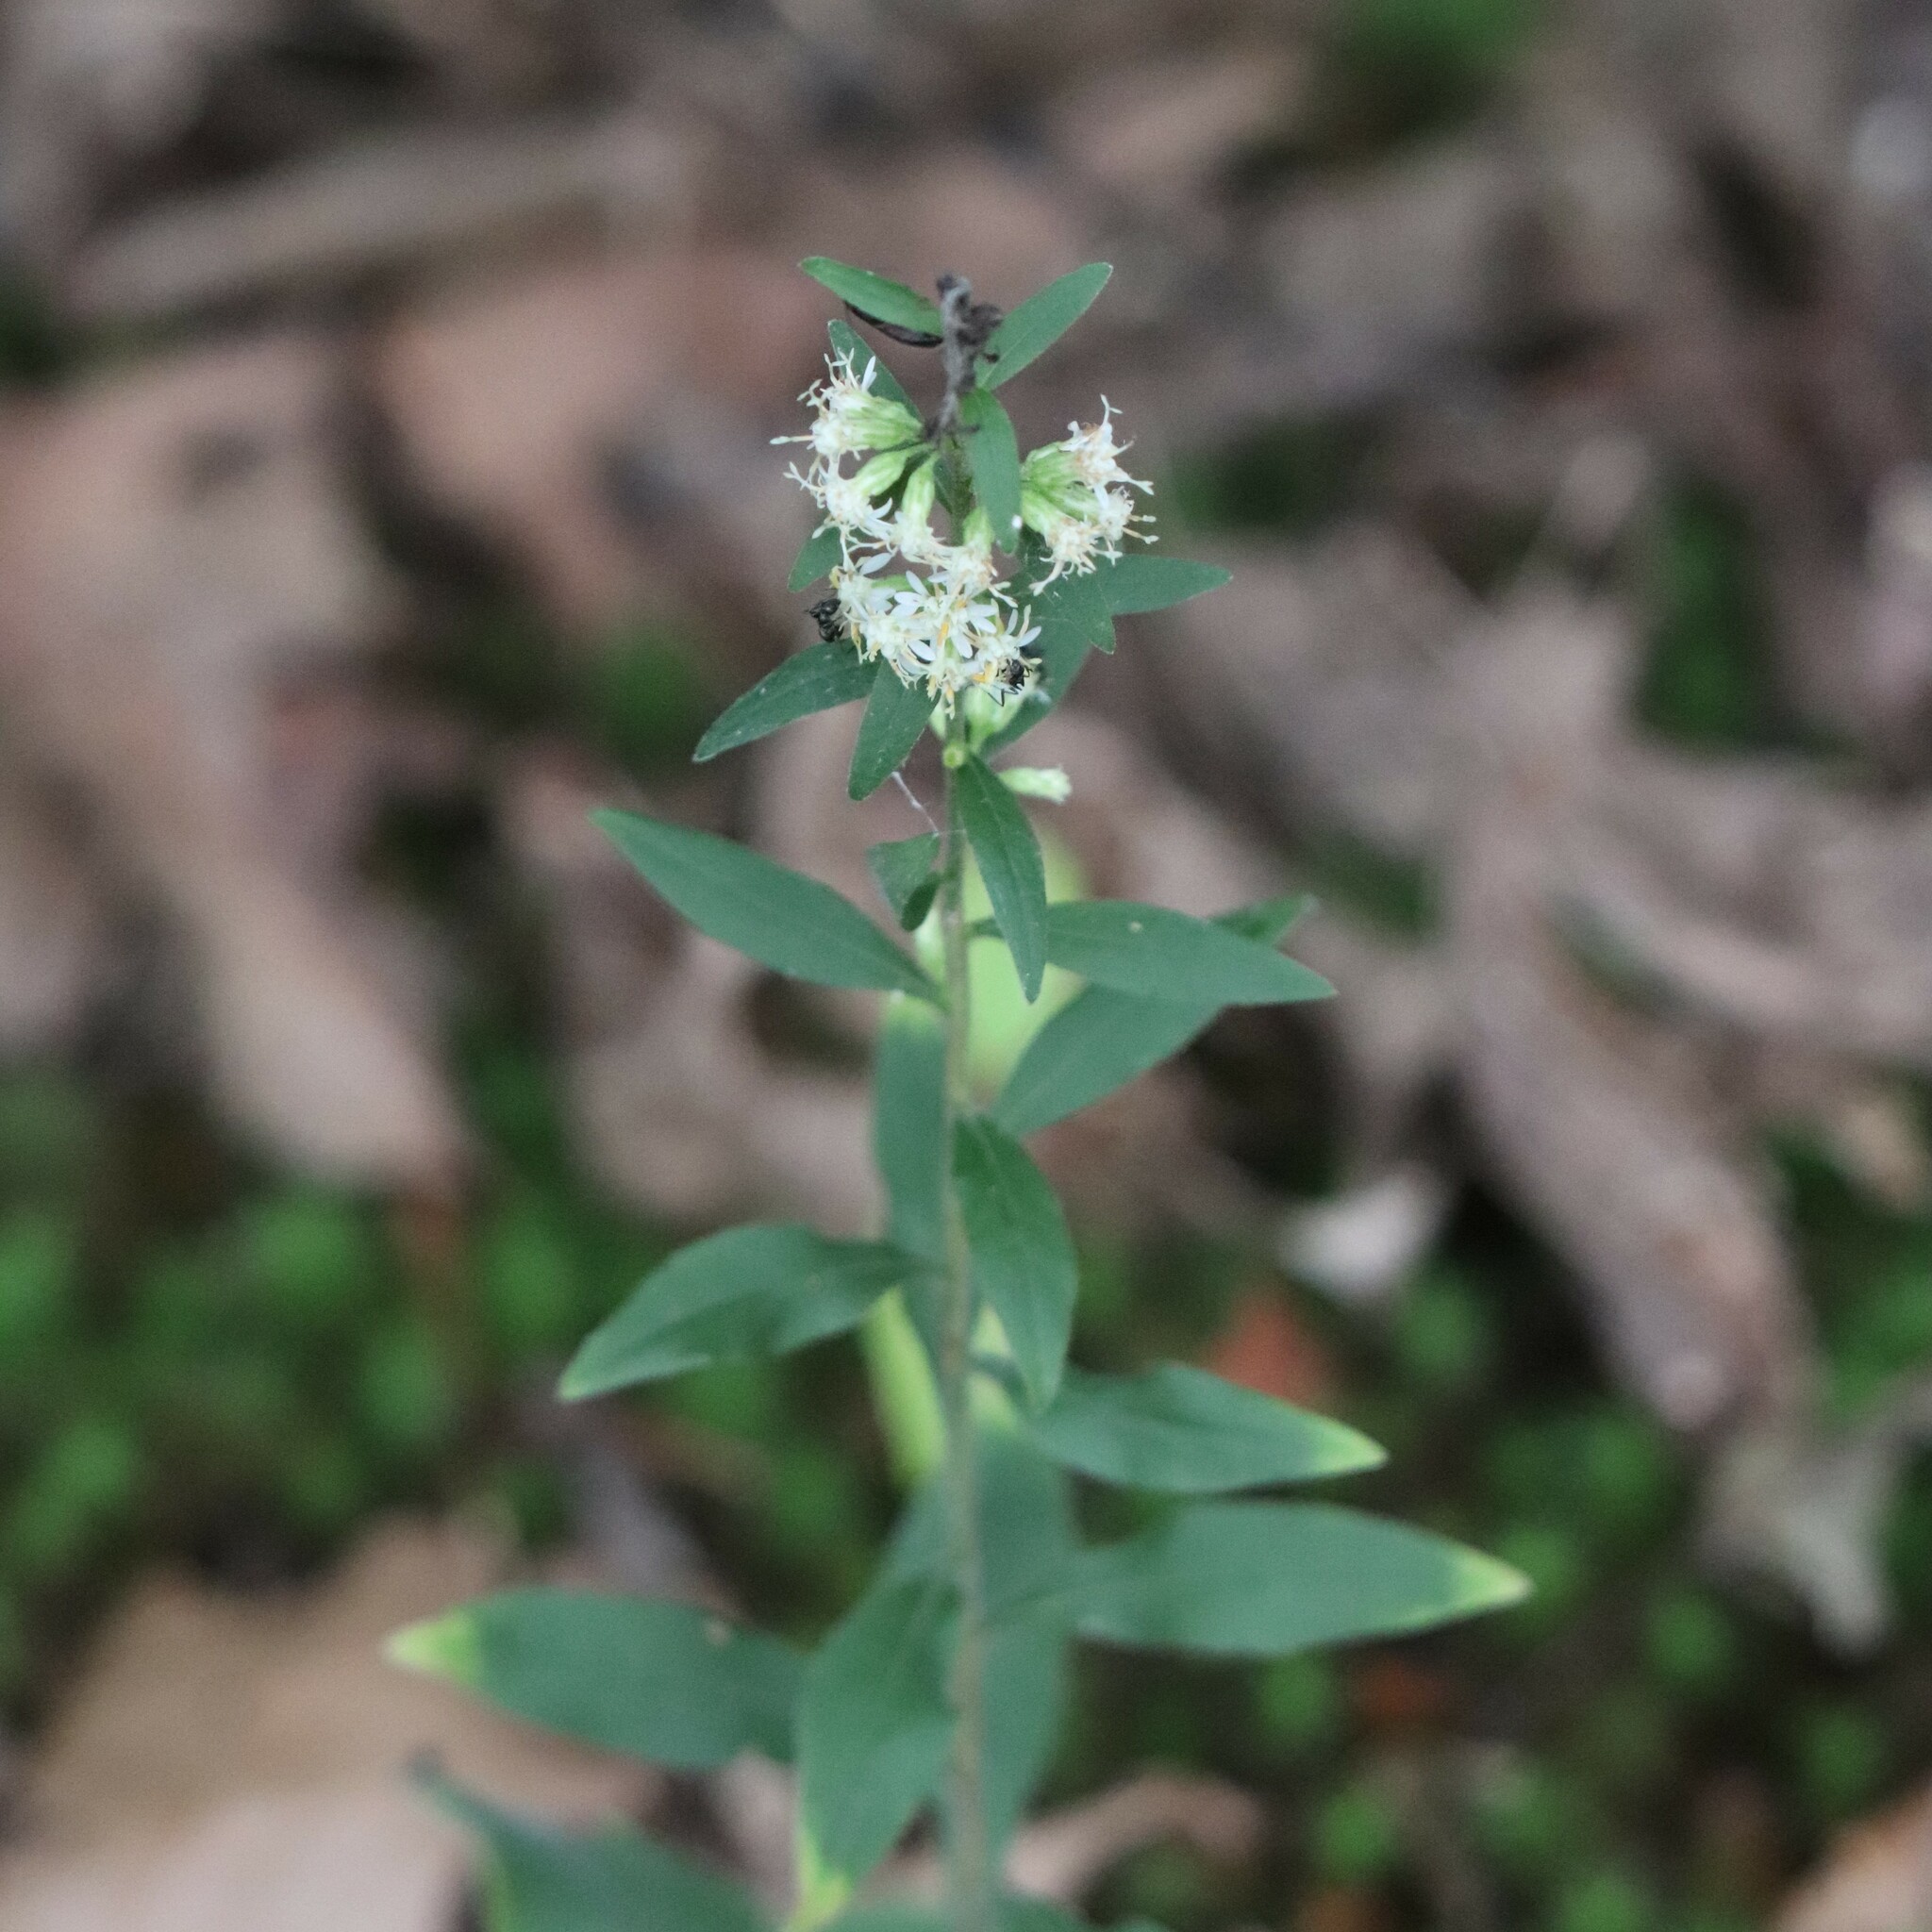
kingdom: Plantae
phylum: Tracheophyta
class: Magnoliopsida
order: Asterales
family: Asteraceae
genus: Solidago
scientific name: Solidago bicolor
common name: Silverrod
